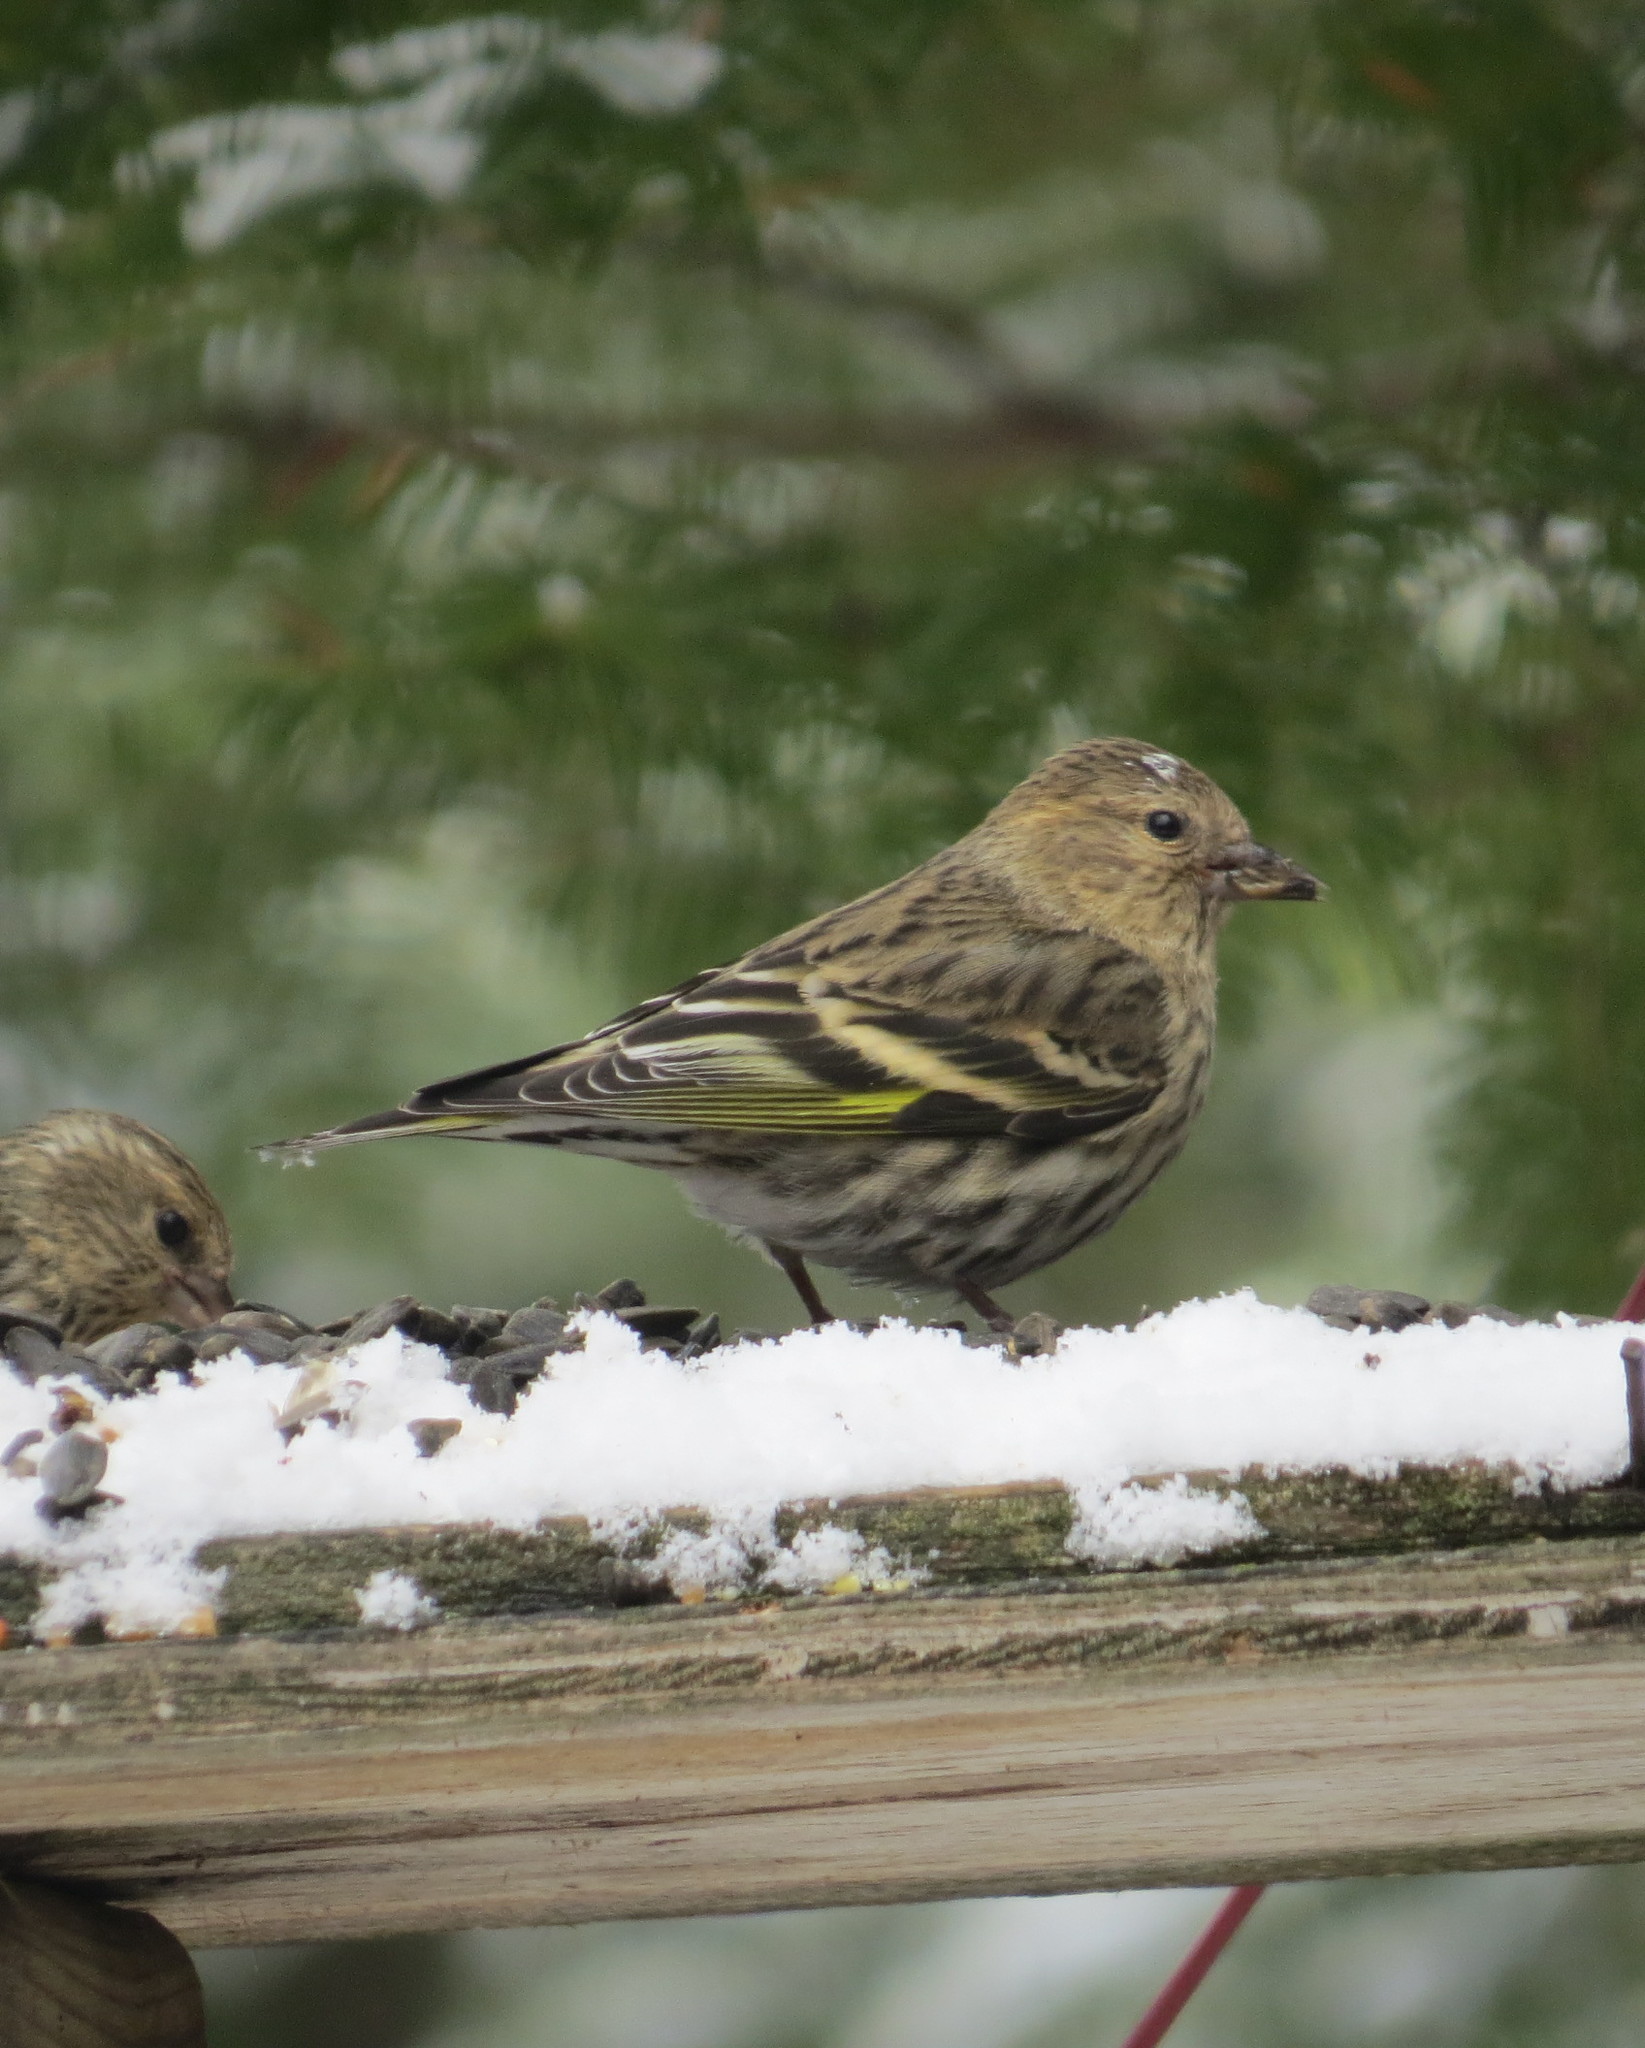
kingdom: Animalia
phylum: Chordata
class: Aves
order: Passeriformes
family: Fringillidae
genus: Spinus
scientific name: Spinus pinus
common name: Pine siskin
